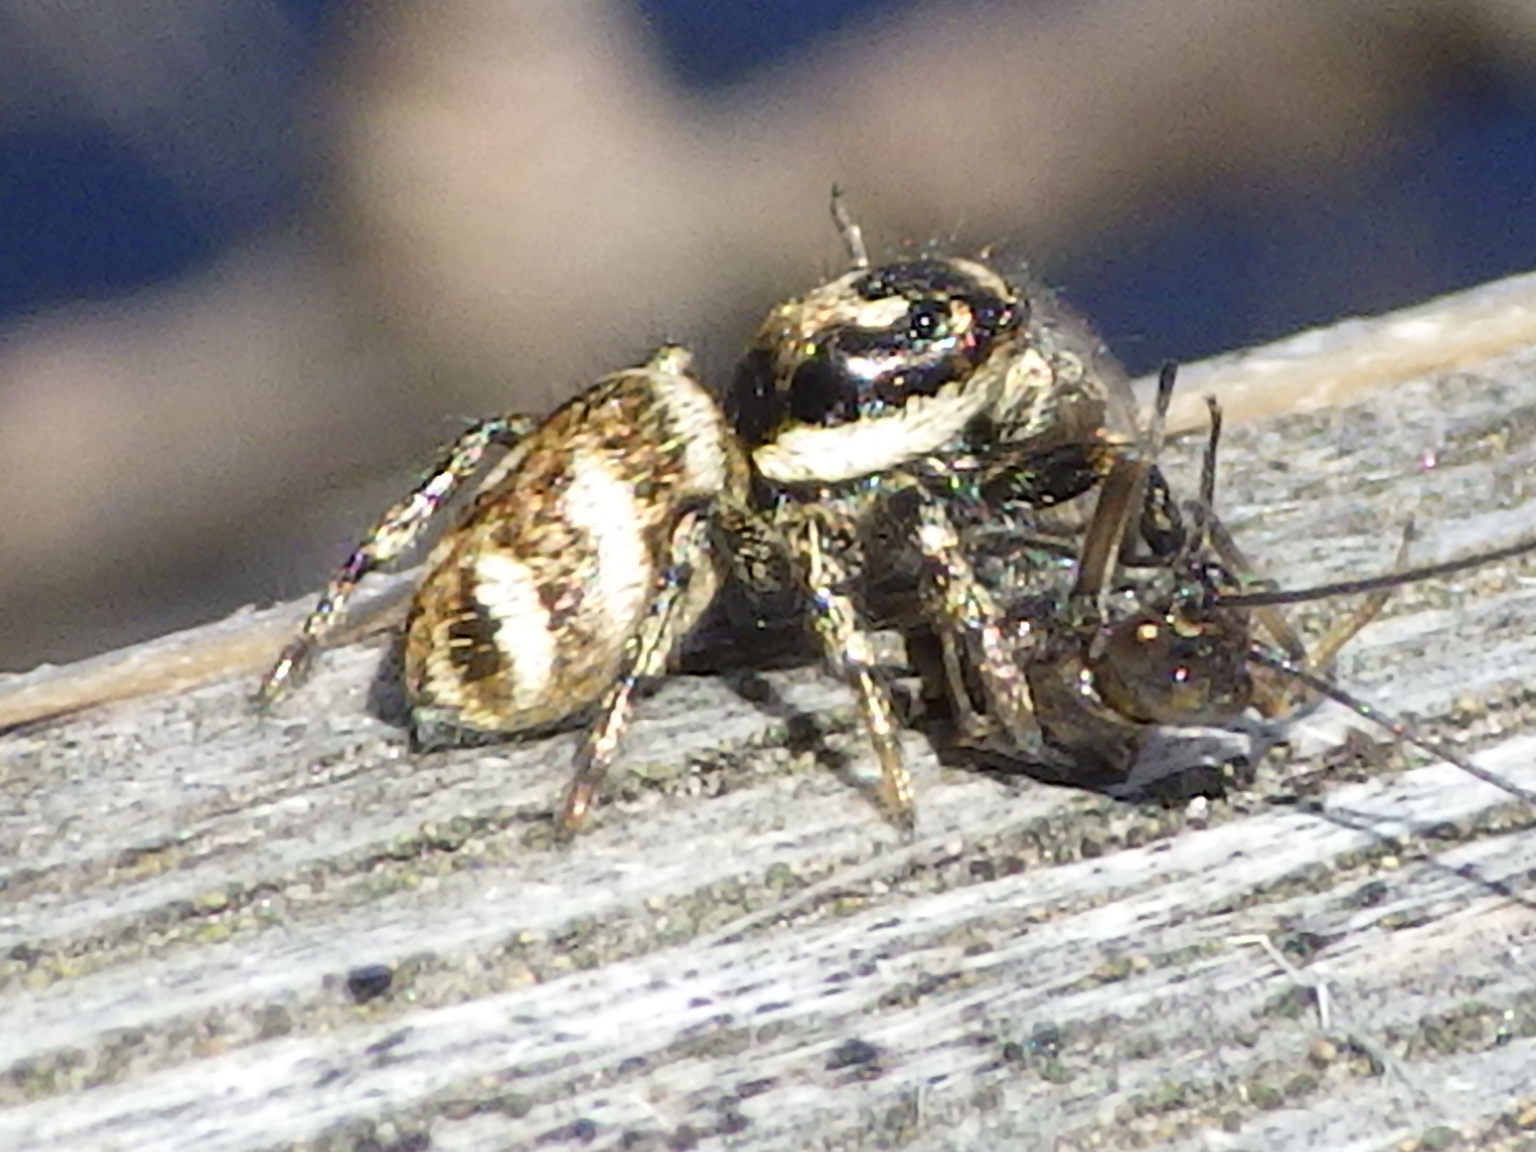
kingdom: Animalia
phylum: Arthropoda
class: Arachnida
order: Araneae
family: Salticidae
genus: Salticus
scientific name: Salticus scenicus
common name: Zebra jumper
